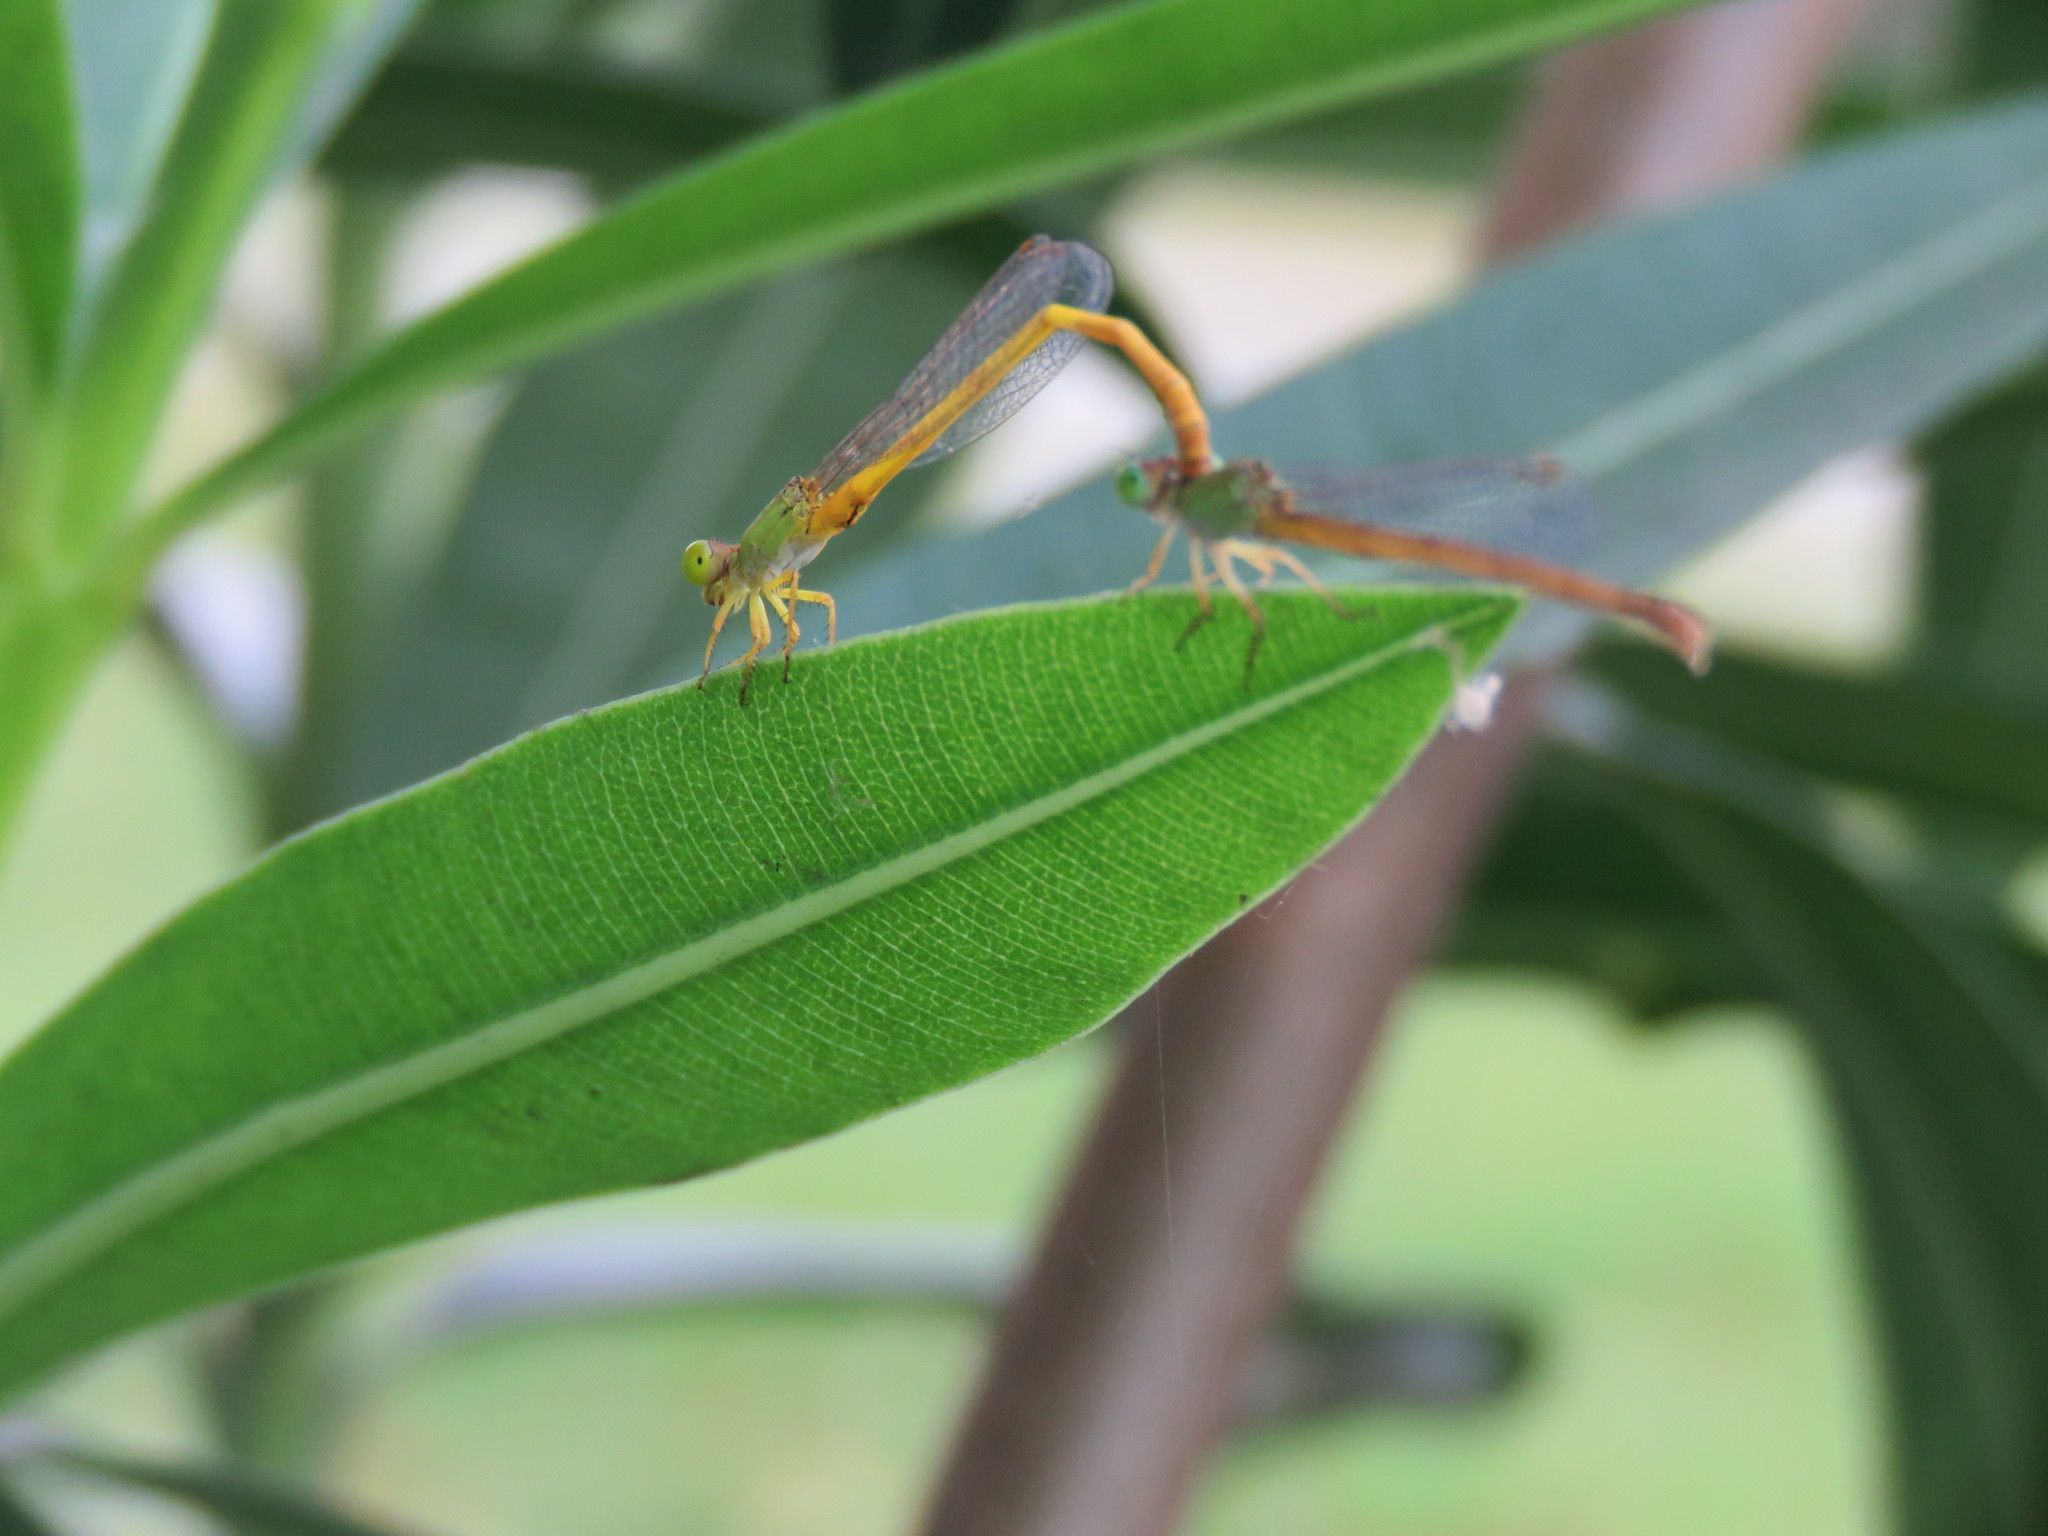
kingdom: Animalia
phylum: Arthropoda
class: Insecta
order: Odonata
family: Coenagrionidae
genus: Ceriagrion
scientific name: Ceriagrion coromandelianum
